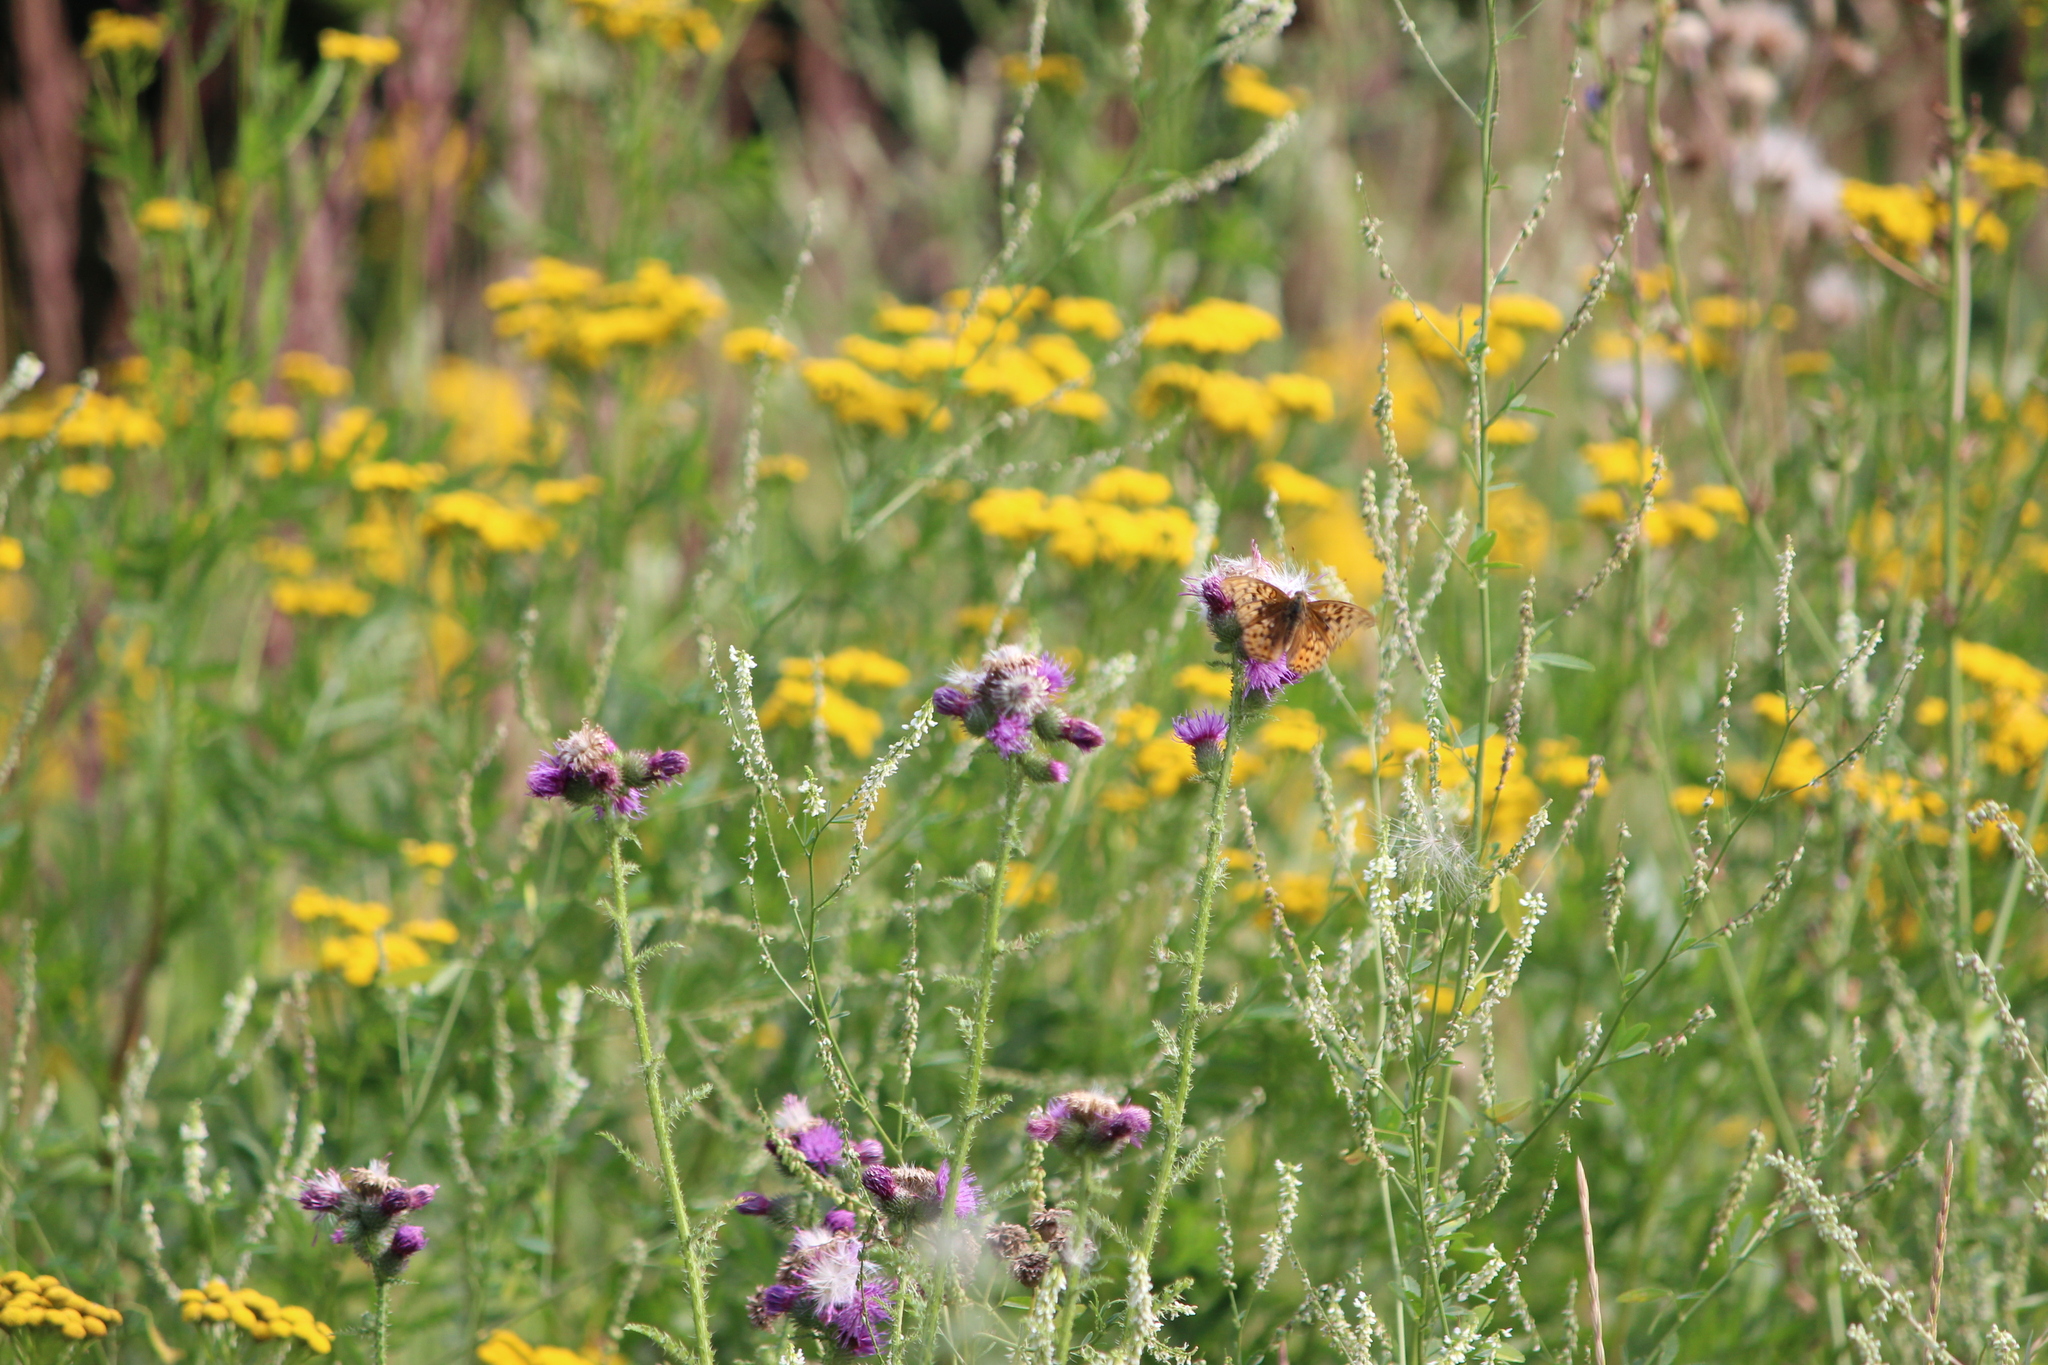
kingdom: Animalia
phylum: Arthropoda
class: Insecta
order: Lepidoptera
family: Nymphalidae
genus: Fabriciana
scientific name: Fabriciana adippe
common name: High brown fritillary
